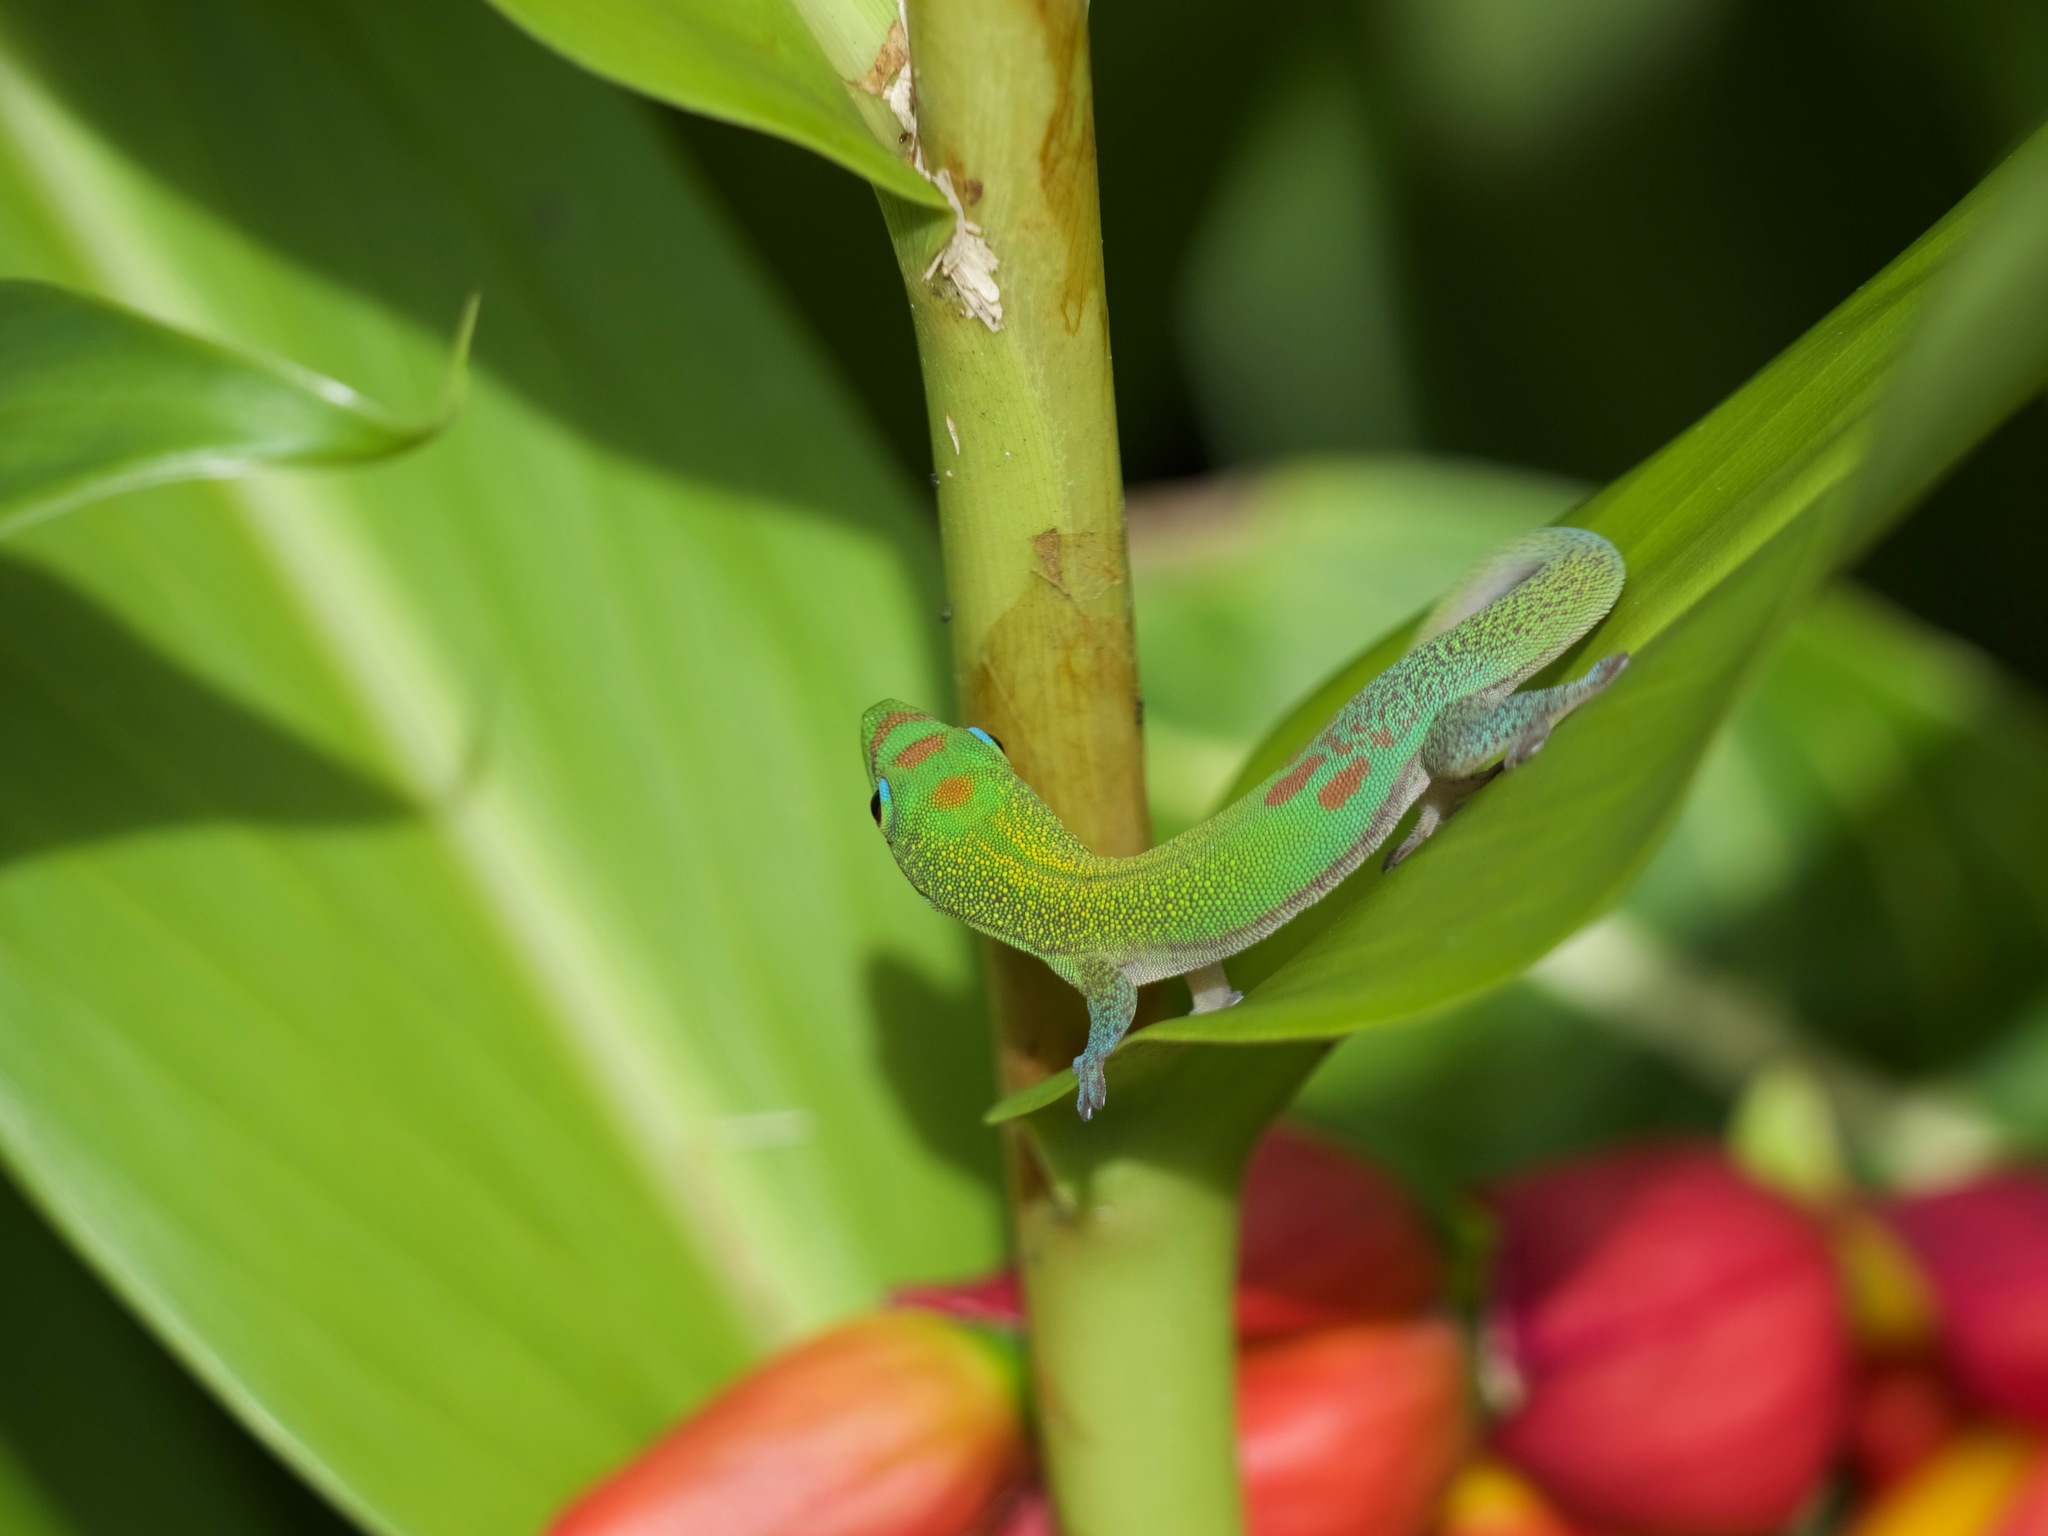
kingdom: Animalia
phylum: Chordata
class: Squamata
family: Gekkonidae
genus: Phelsuma
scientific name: Phelsuma laticauda
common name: Gold dust day gecko
